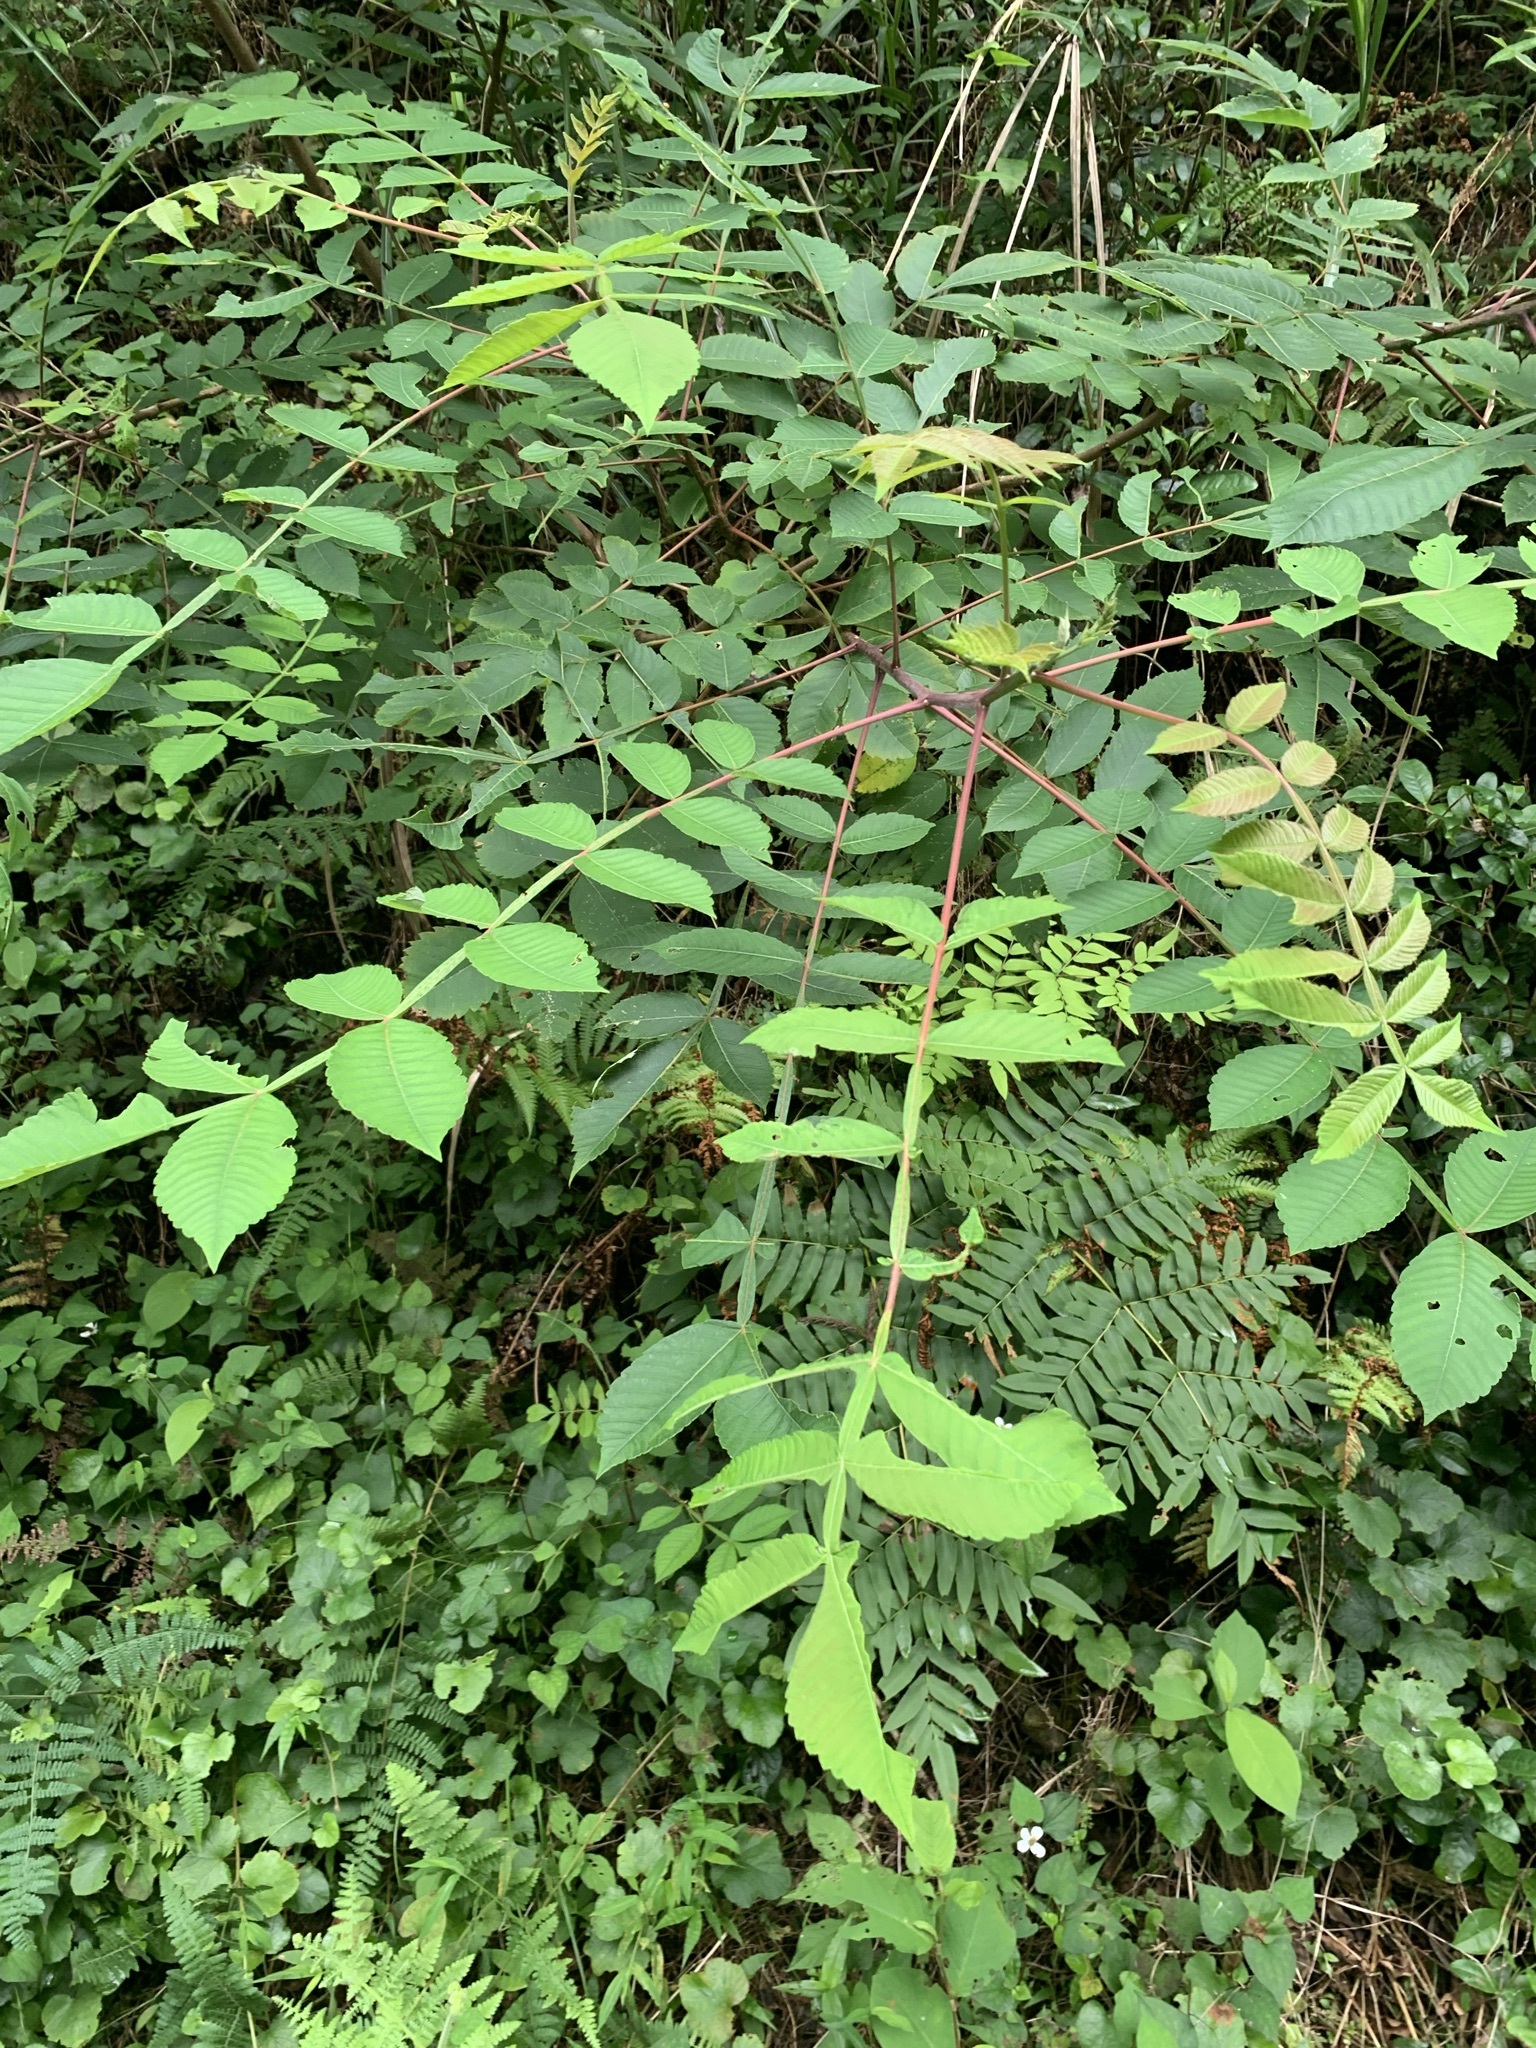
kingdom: Plantae
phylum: Tracheophyta
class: Magnoliopsida
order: Sapindales
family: Anacardiaceae
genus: Rhus
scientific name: Rhus chinensis
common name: Chinese gall
